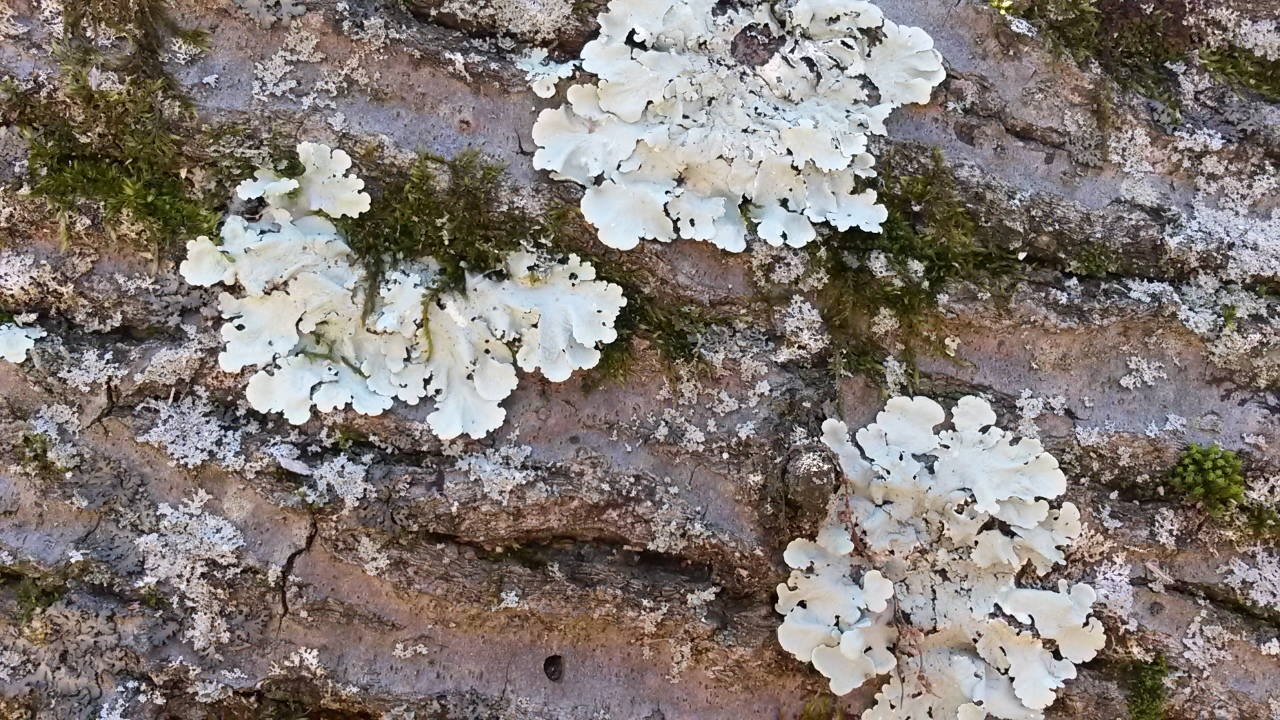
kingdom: Fungi
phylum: Ascomycota
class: Lecanoromycetes
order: Lecanorales
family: Parmeliaceae
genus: Flavoparmelia
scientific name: Flavoparmelia caperata
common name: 40-mile per hour lichen
